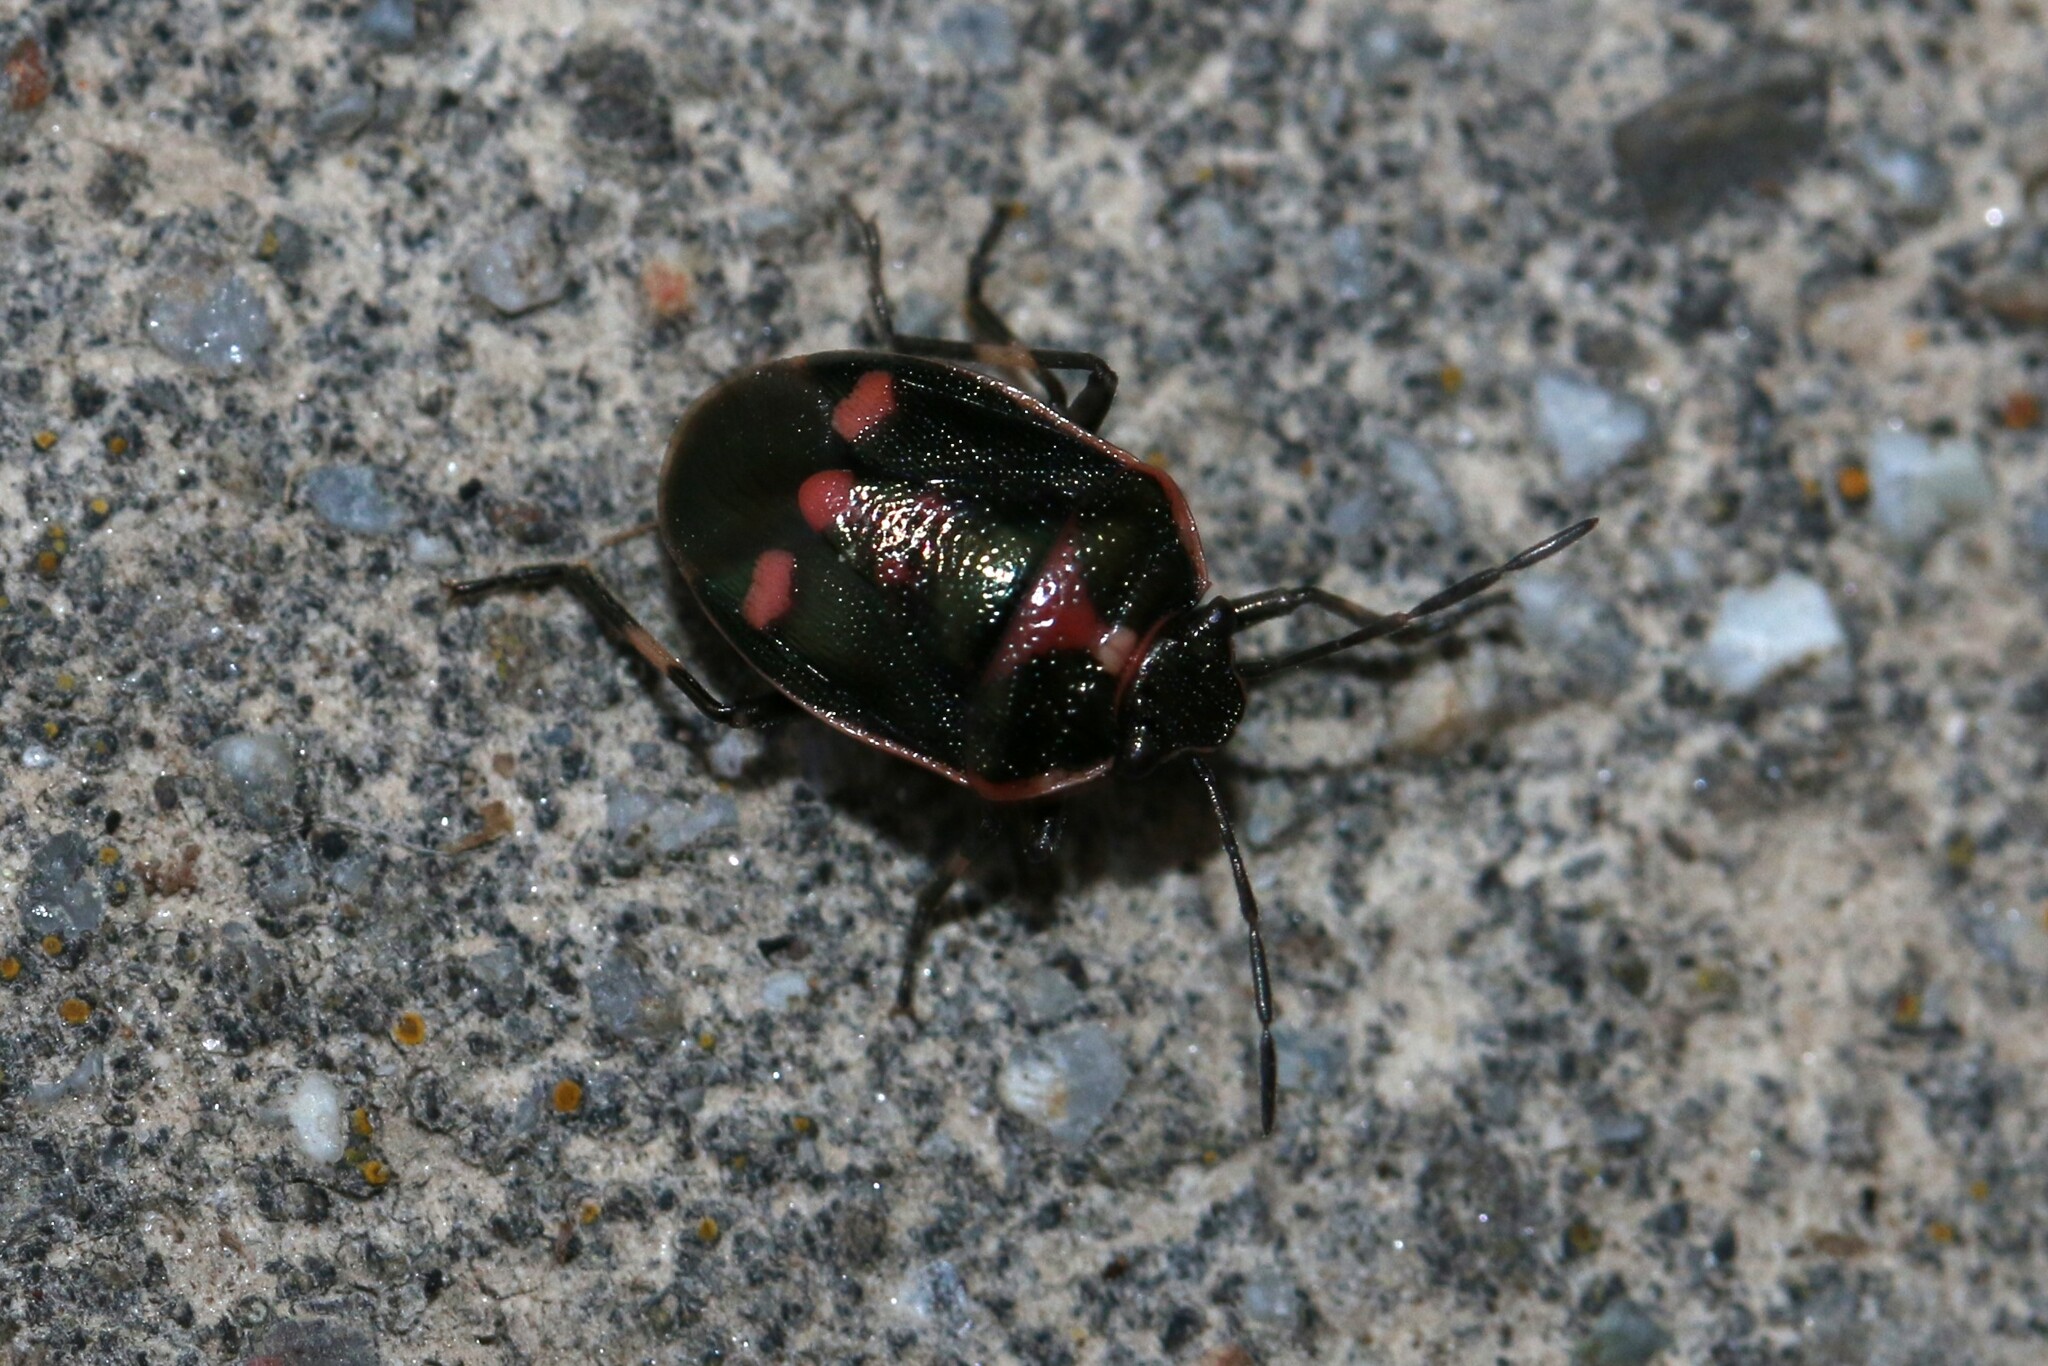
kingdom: Animalia
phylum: Arthropoda
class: Insecta
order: Hemiptera
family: Pentatomidae
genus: Eurydema
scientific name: Eurydema oleracea
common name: Cabbage bug
